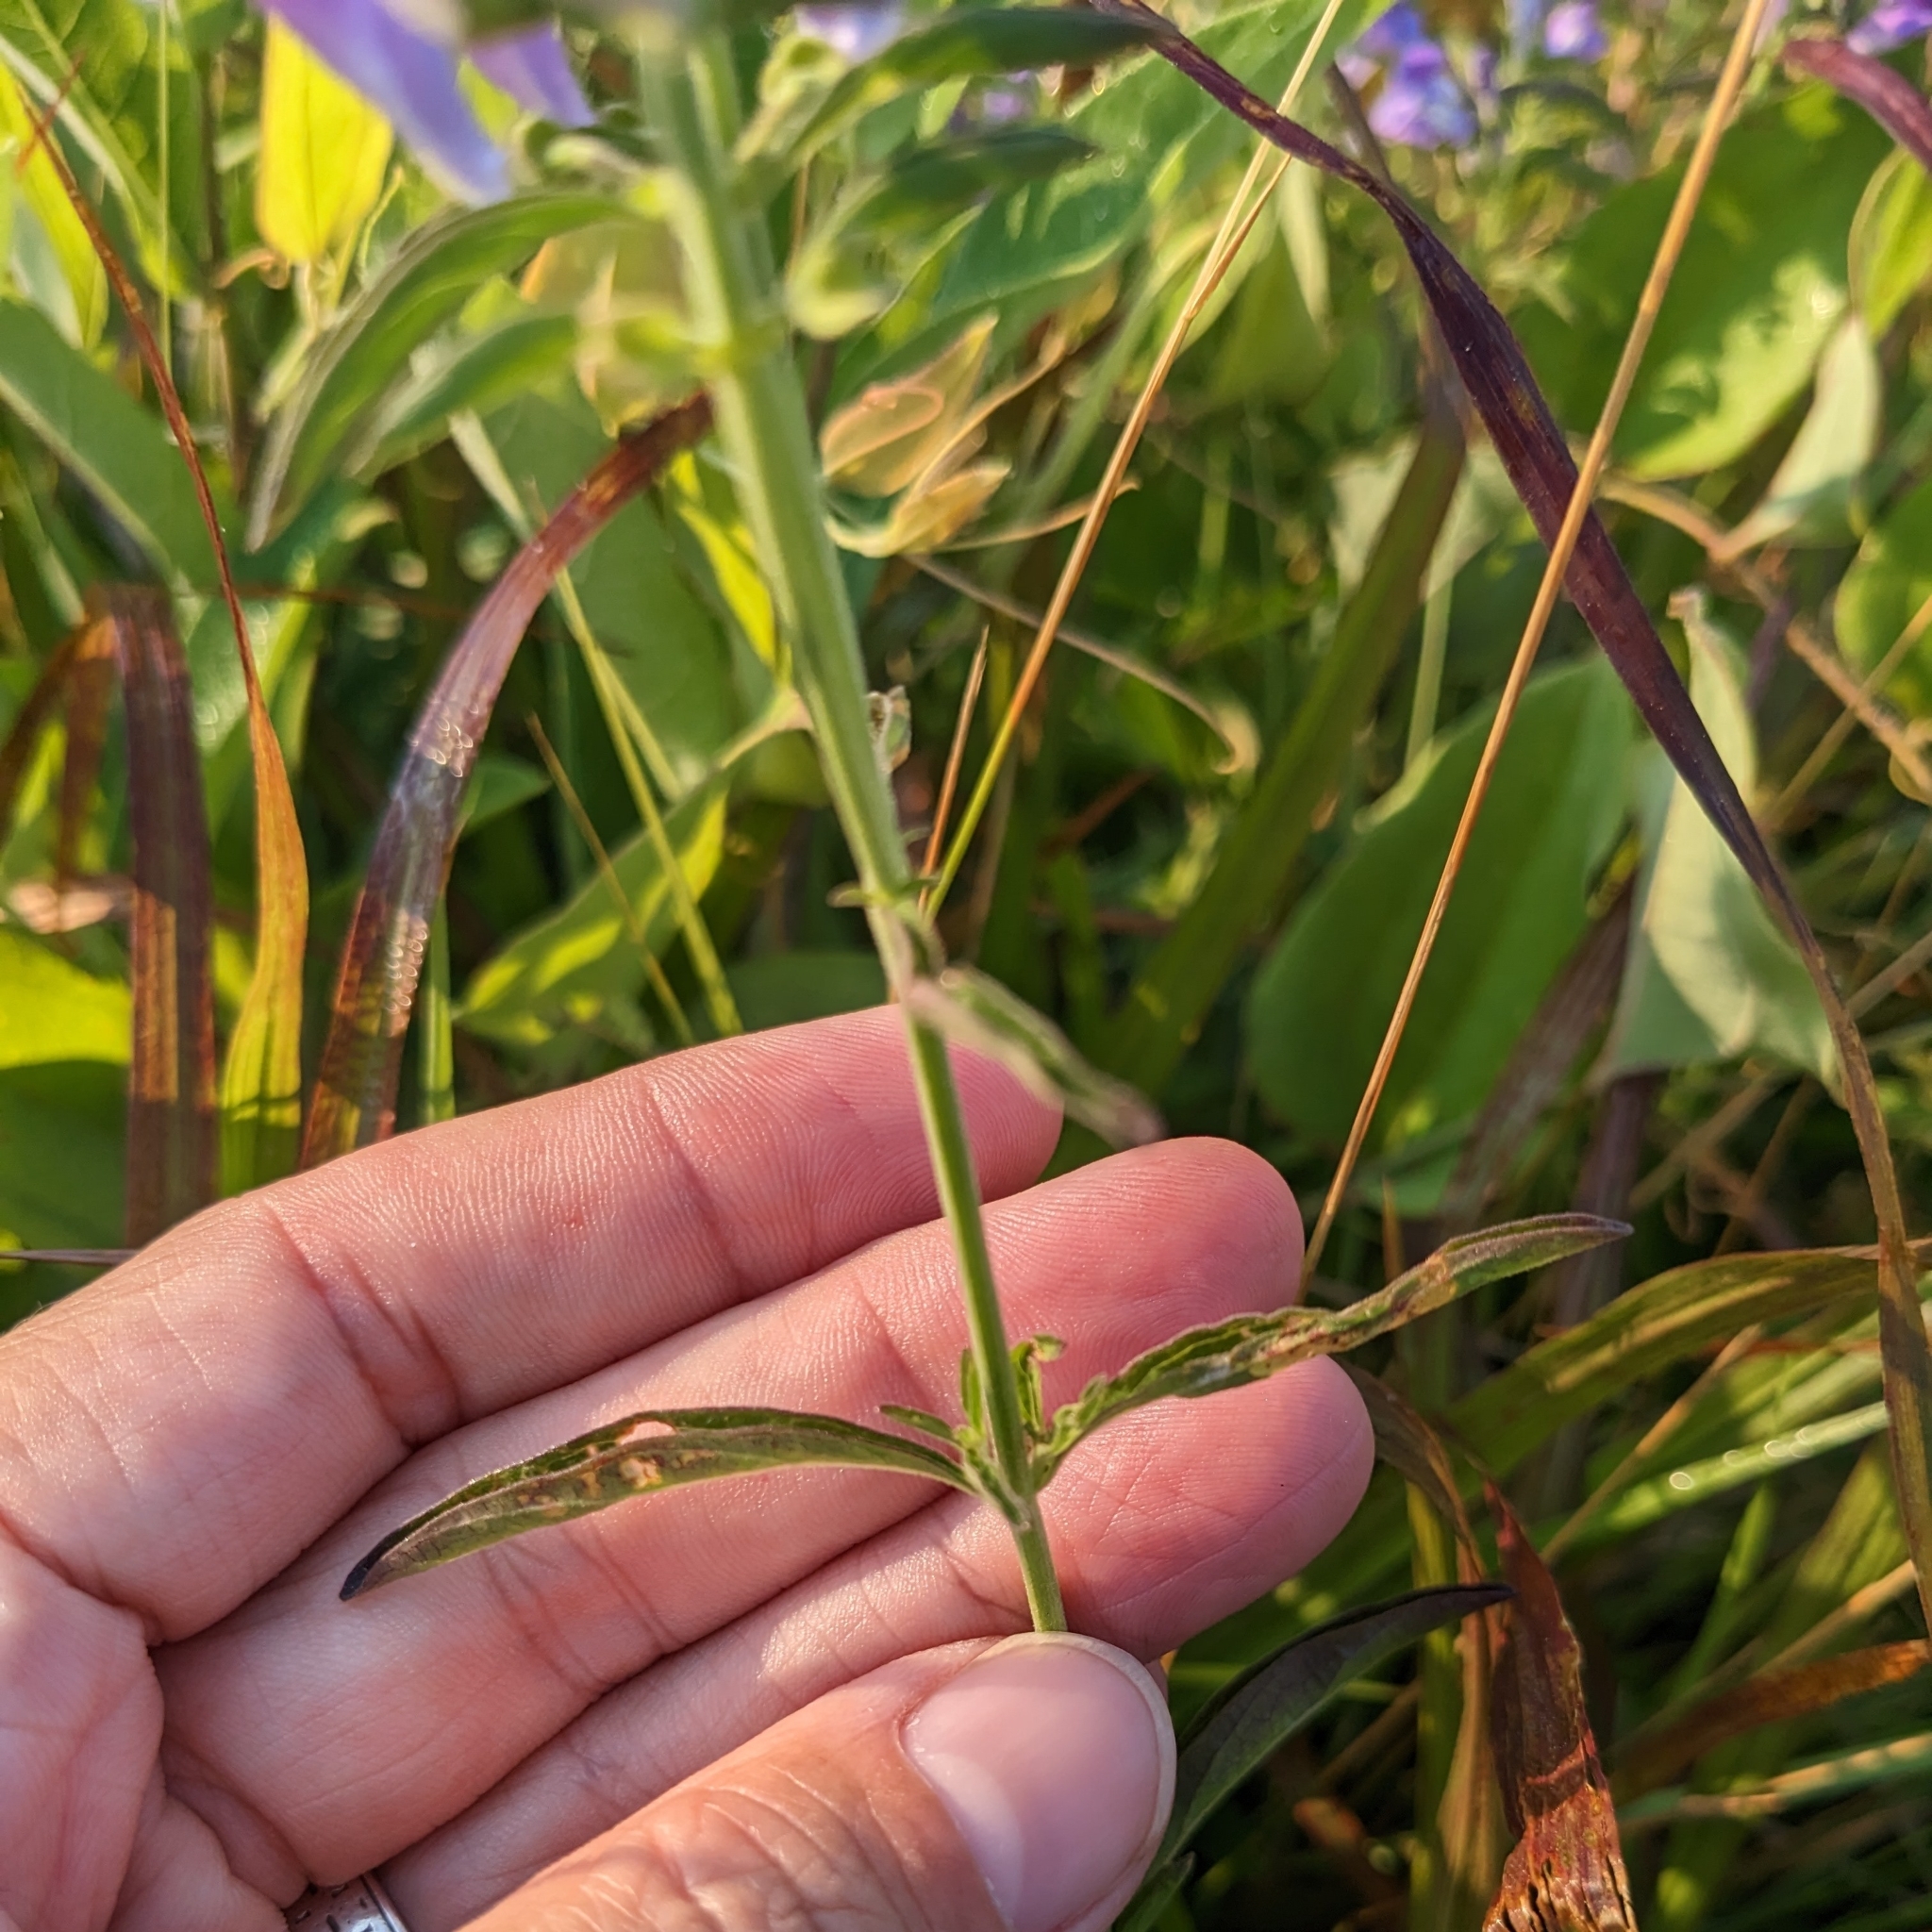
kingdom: Plantae
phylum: Tracheophyta
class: Magnoliopsida
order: Lamiales
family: Lamiaceae
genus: Scutellaria
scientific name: Scutellaria integrifolia
